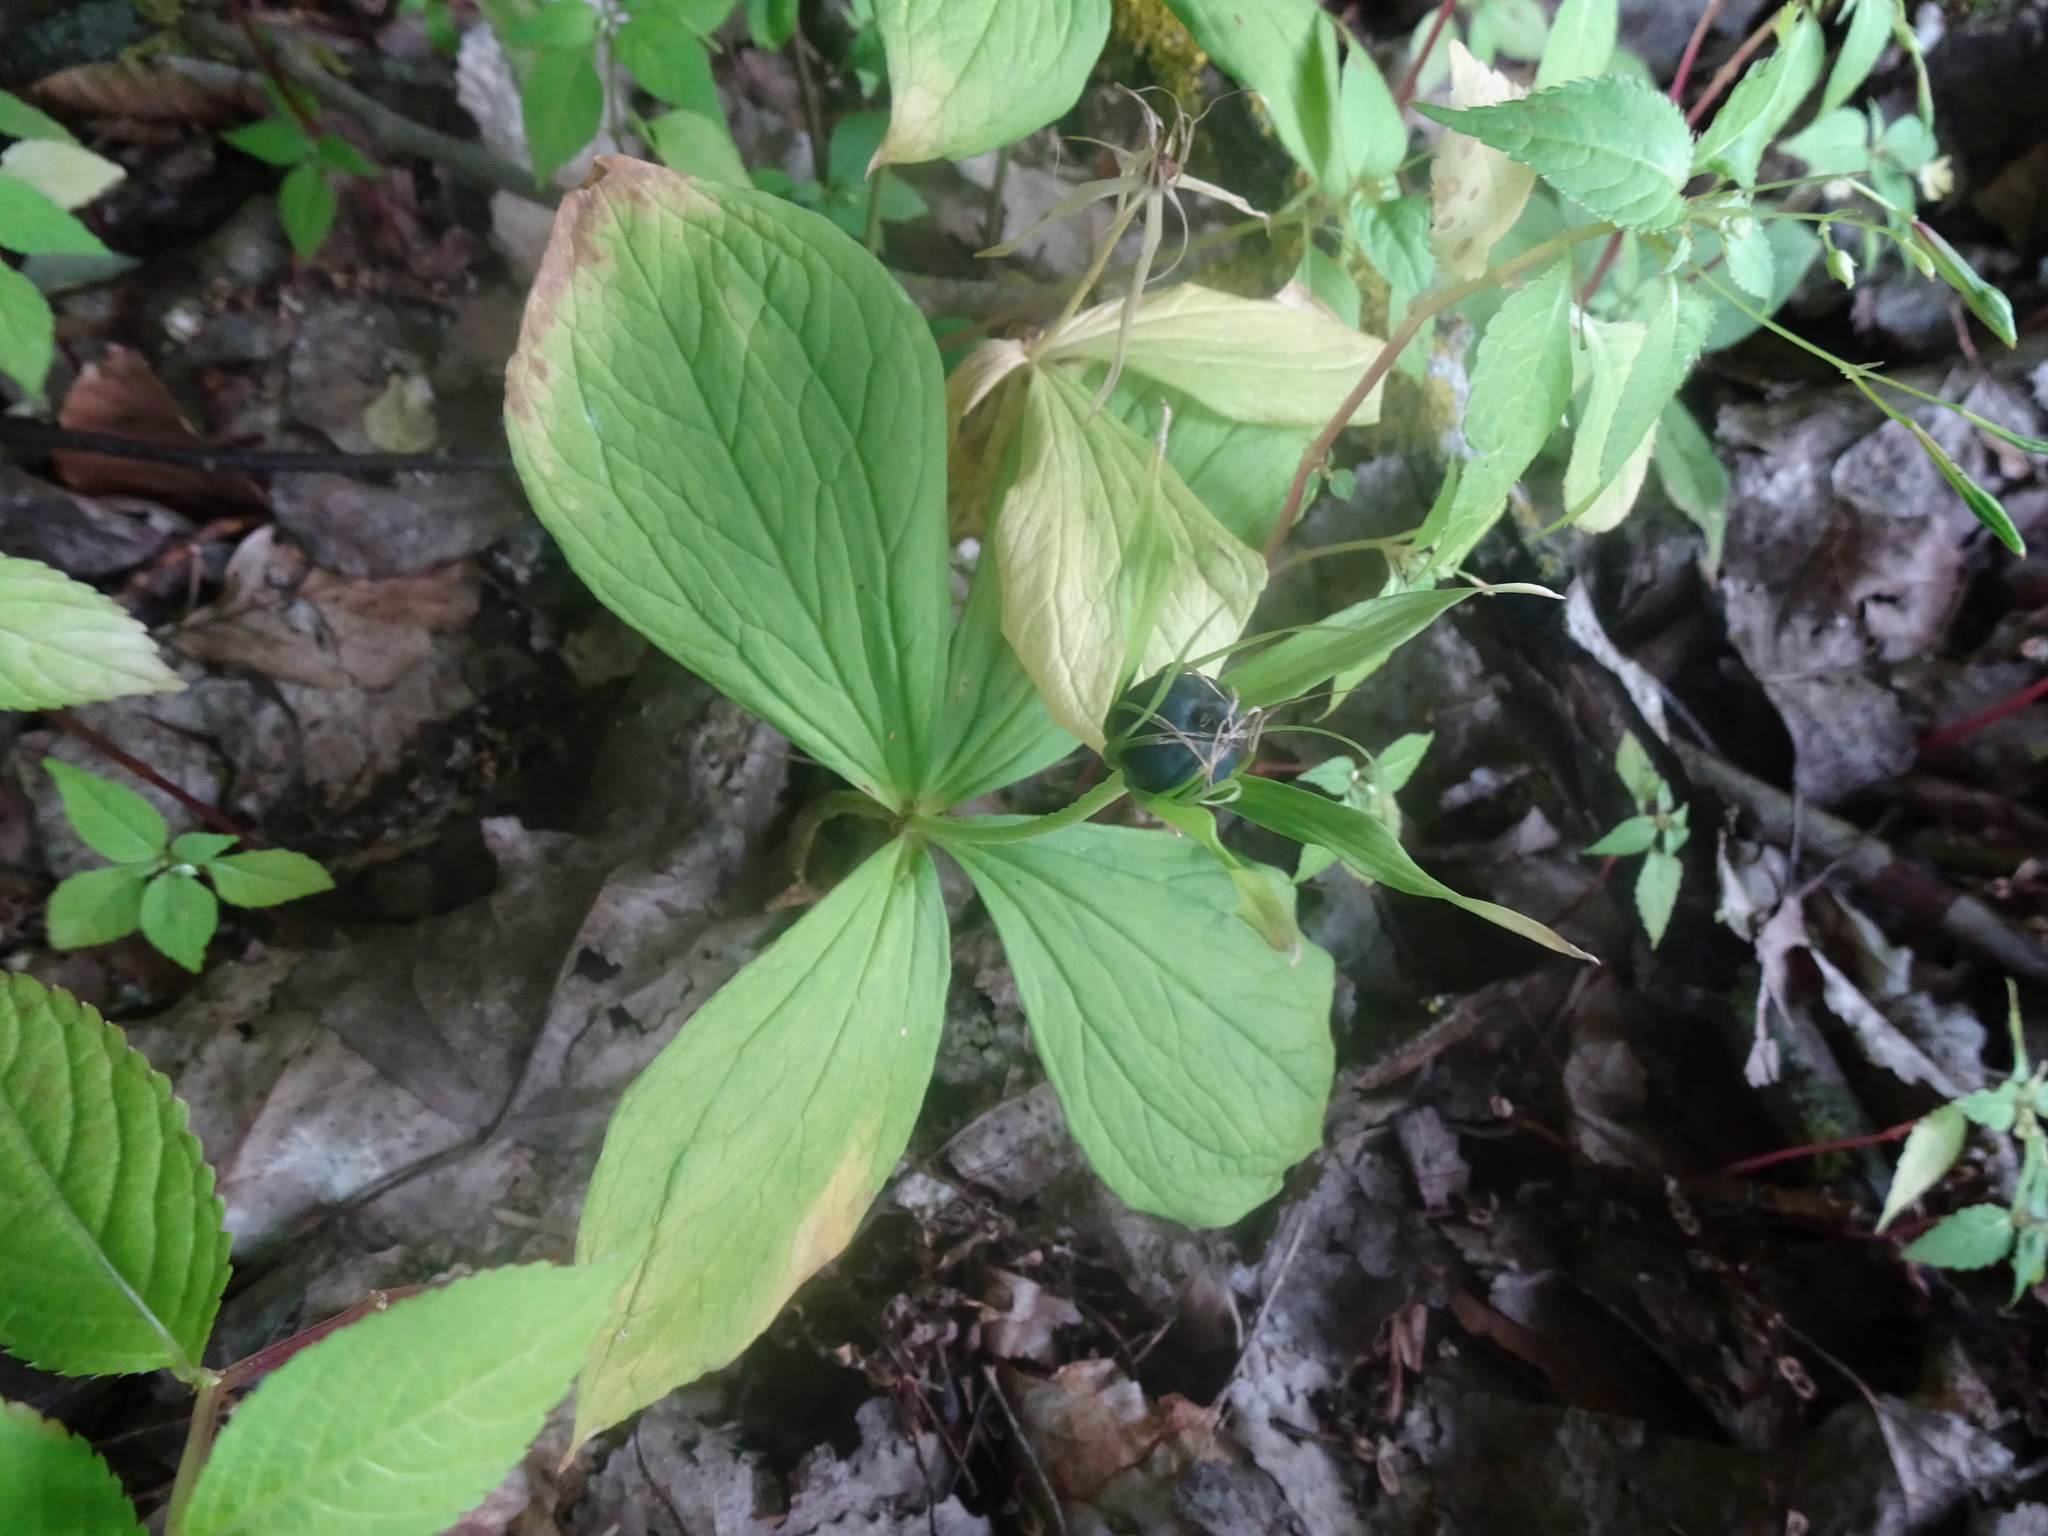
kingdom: Plantae
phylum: Tracheophyta
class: Liliopsida
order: Liliales
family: Melanthiaceae
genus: Paris
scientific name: Paris quadrifolia
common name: Herb-paris
